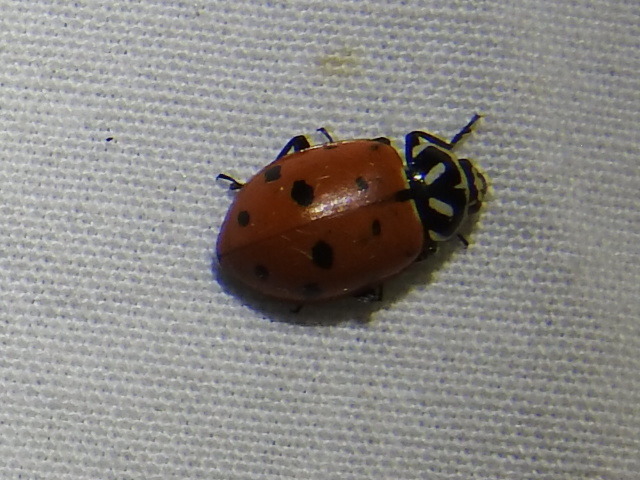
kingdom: Animalia
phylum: Arthropoda
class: Insecta
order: Coleoptera
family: Coccinellidae
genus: Hippodamia
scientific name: Hippodamia convergens
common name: Convergent lady beetle
